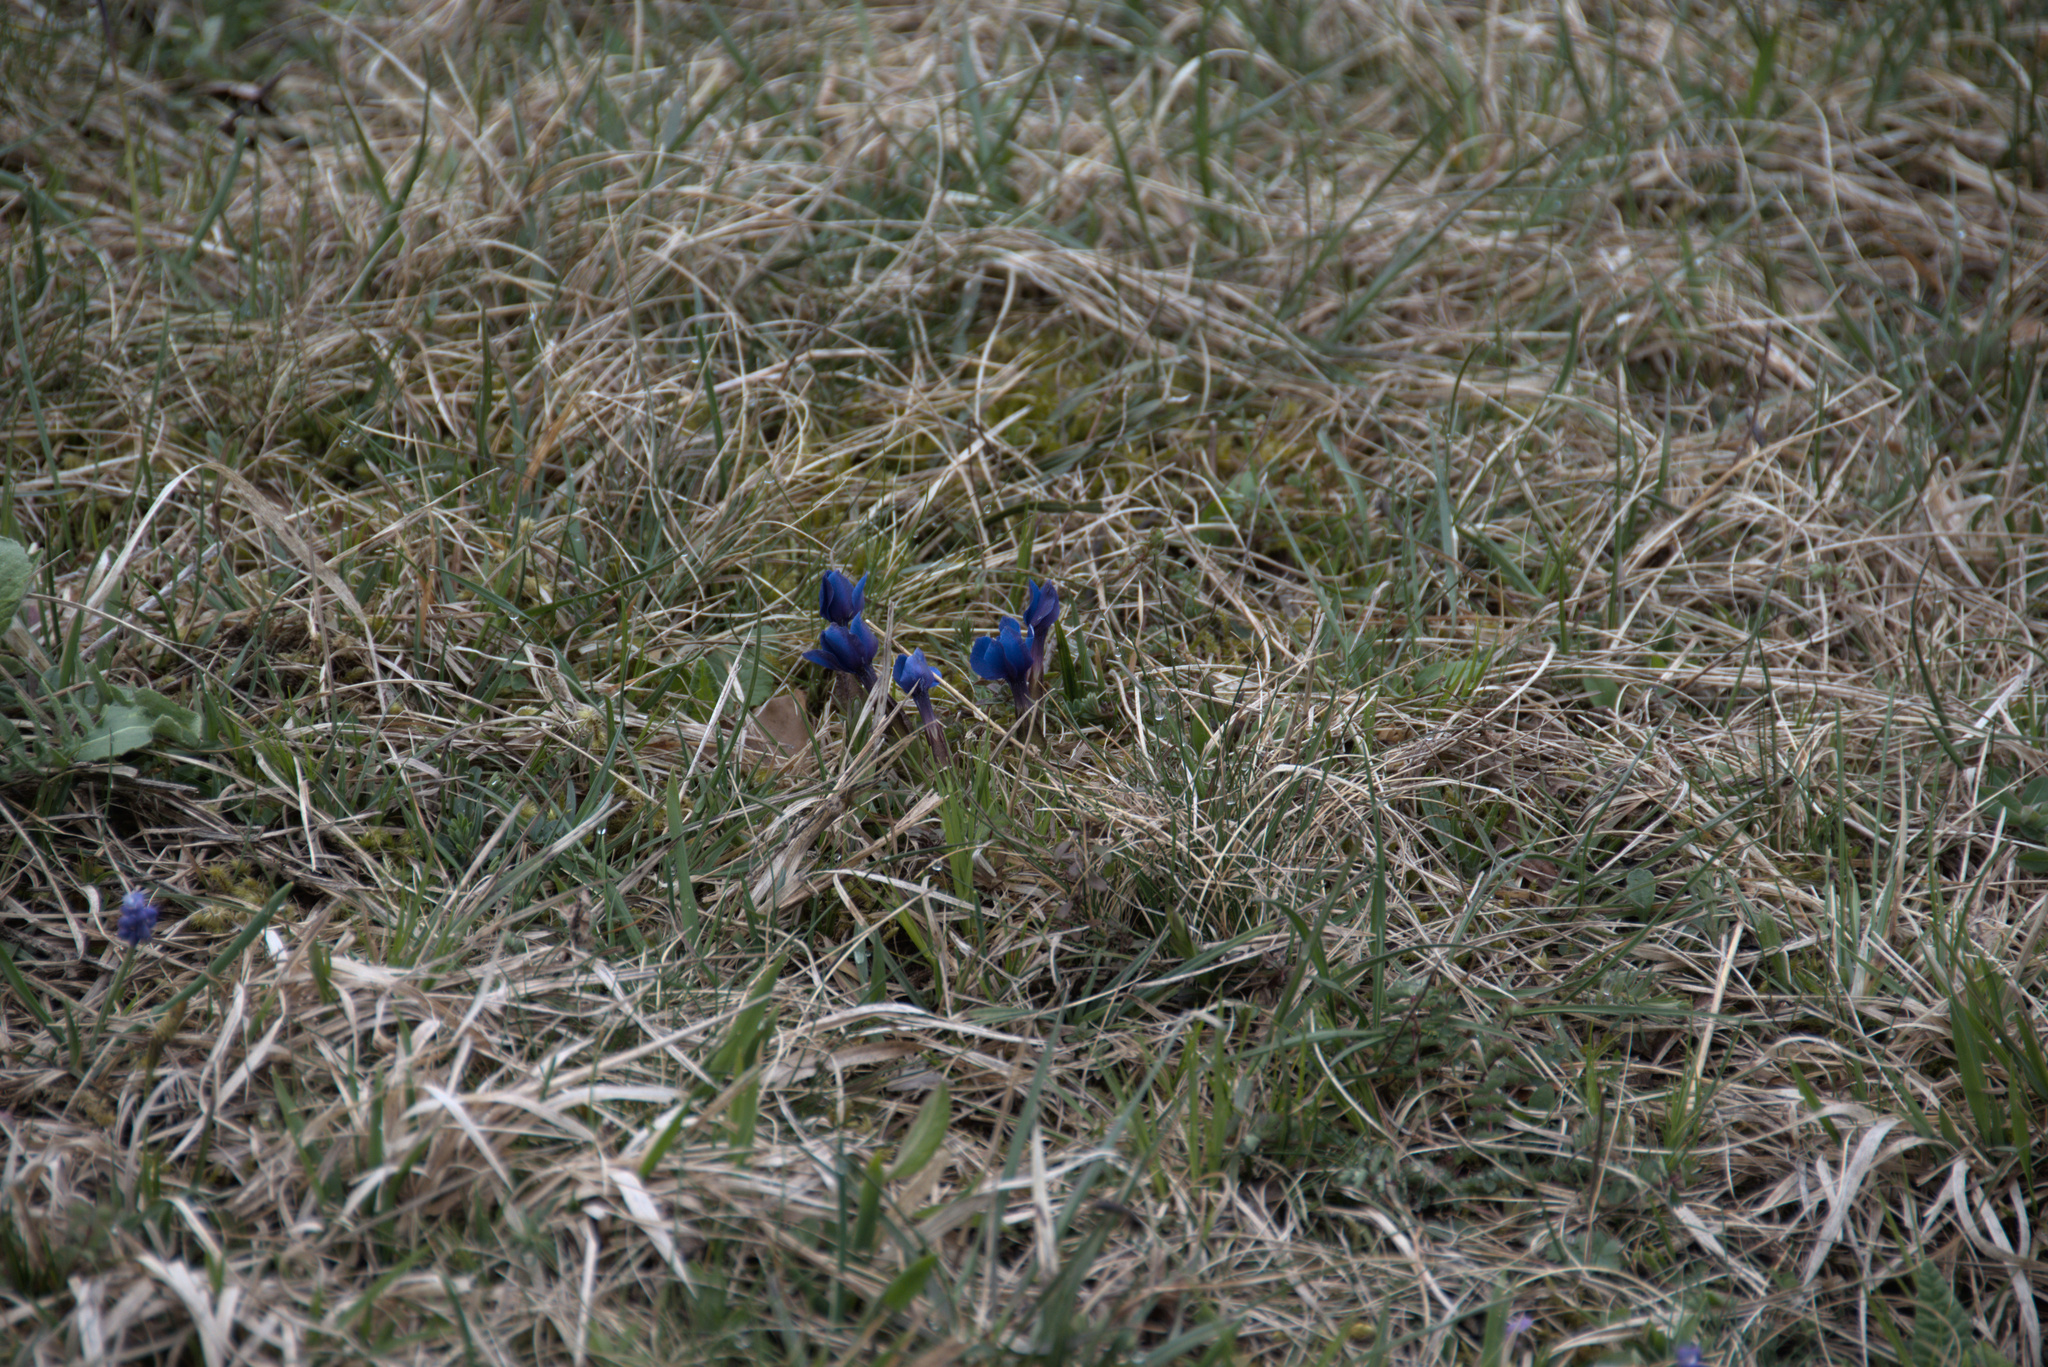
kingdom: Plantae
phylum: Tracheophyta
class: Magnoliopsida
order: Gentianales
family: Gentianaceae
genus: Gentiana
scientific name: Gentiana verna
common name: Spring gentian
